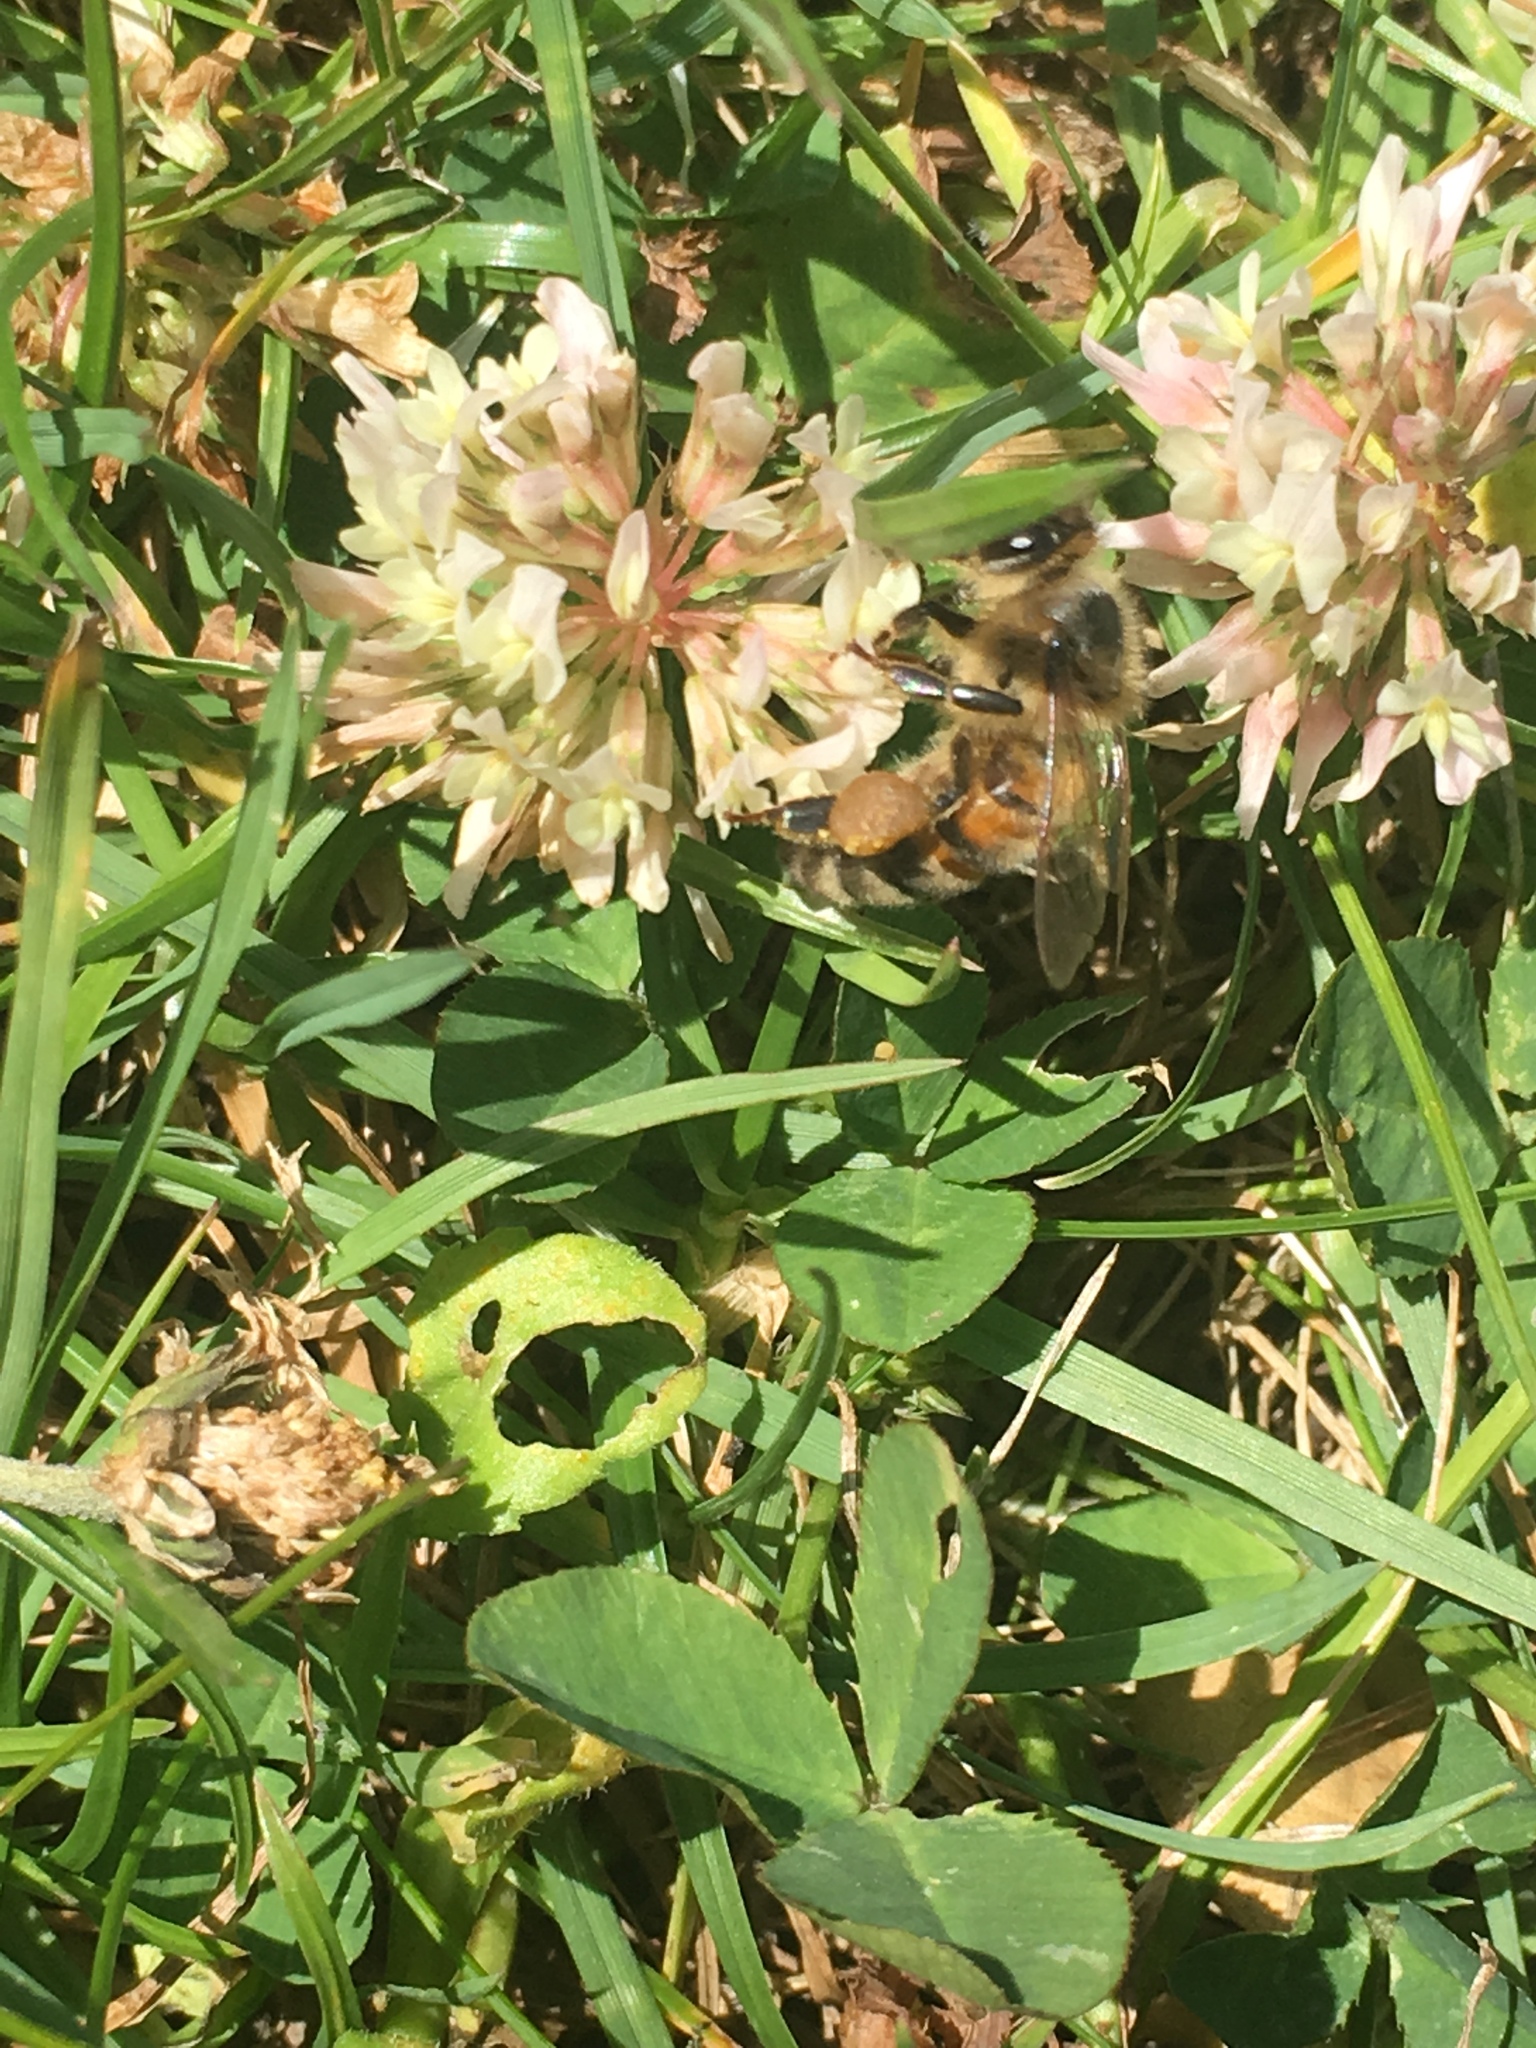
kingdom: Animalia
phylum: Arthropoda
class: Insecta
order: Hymenoptera
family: Apidae
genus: Apis
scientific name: Apis mellifera
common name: Honey bee
